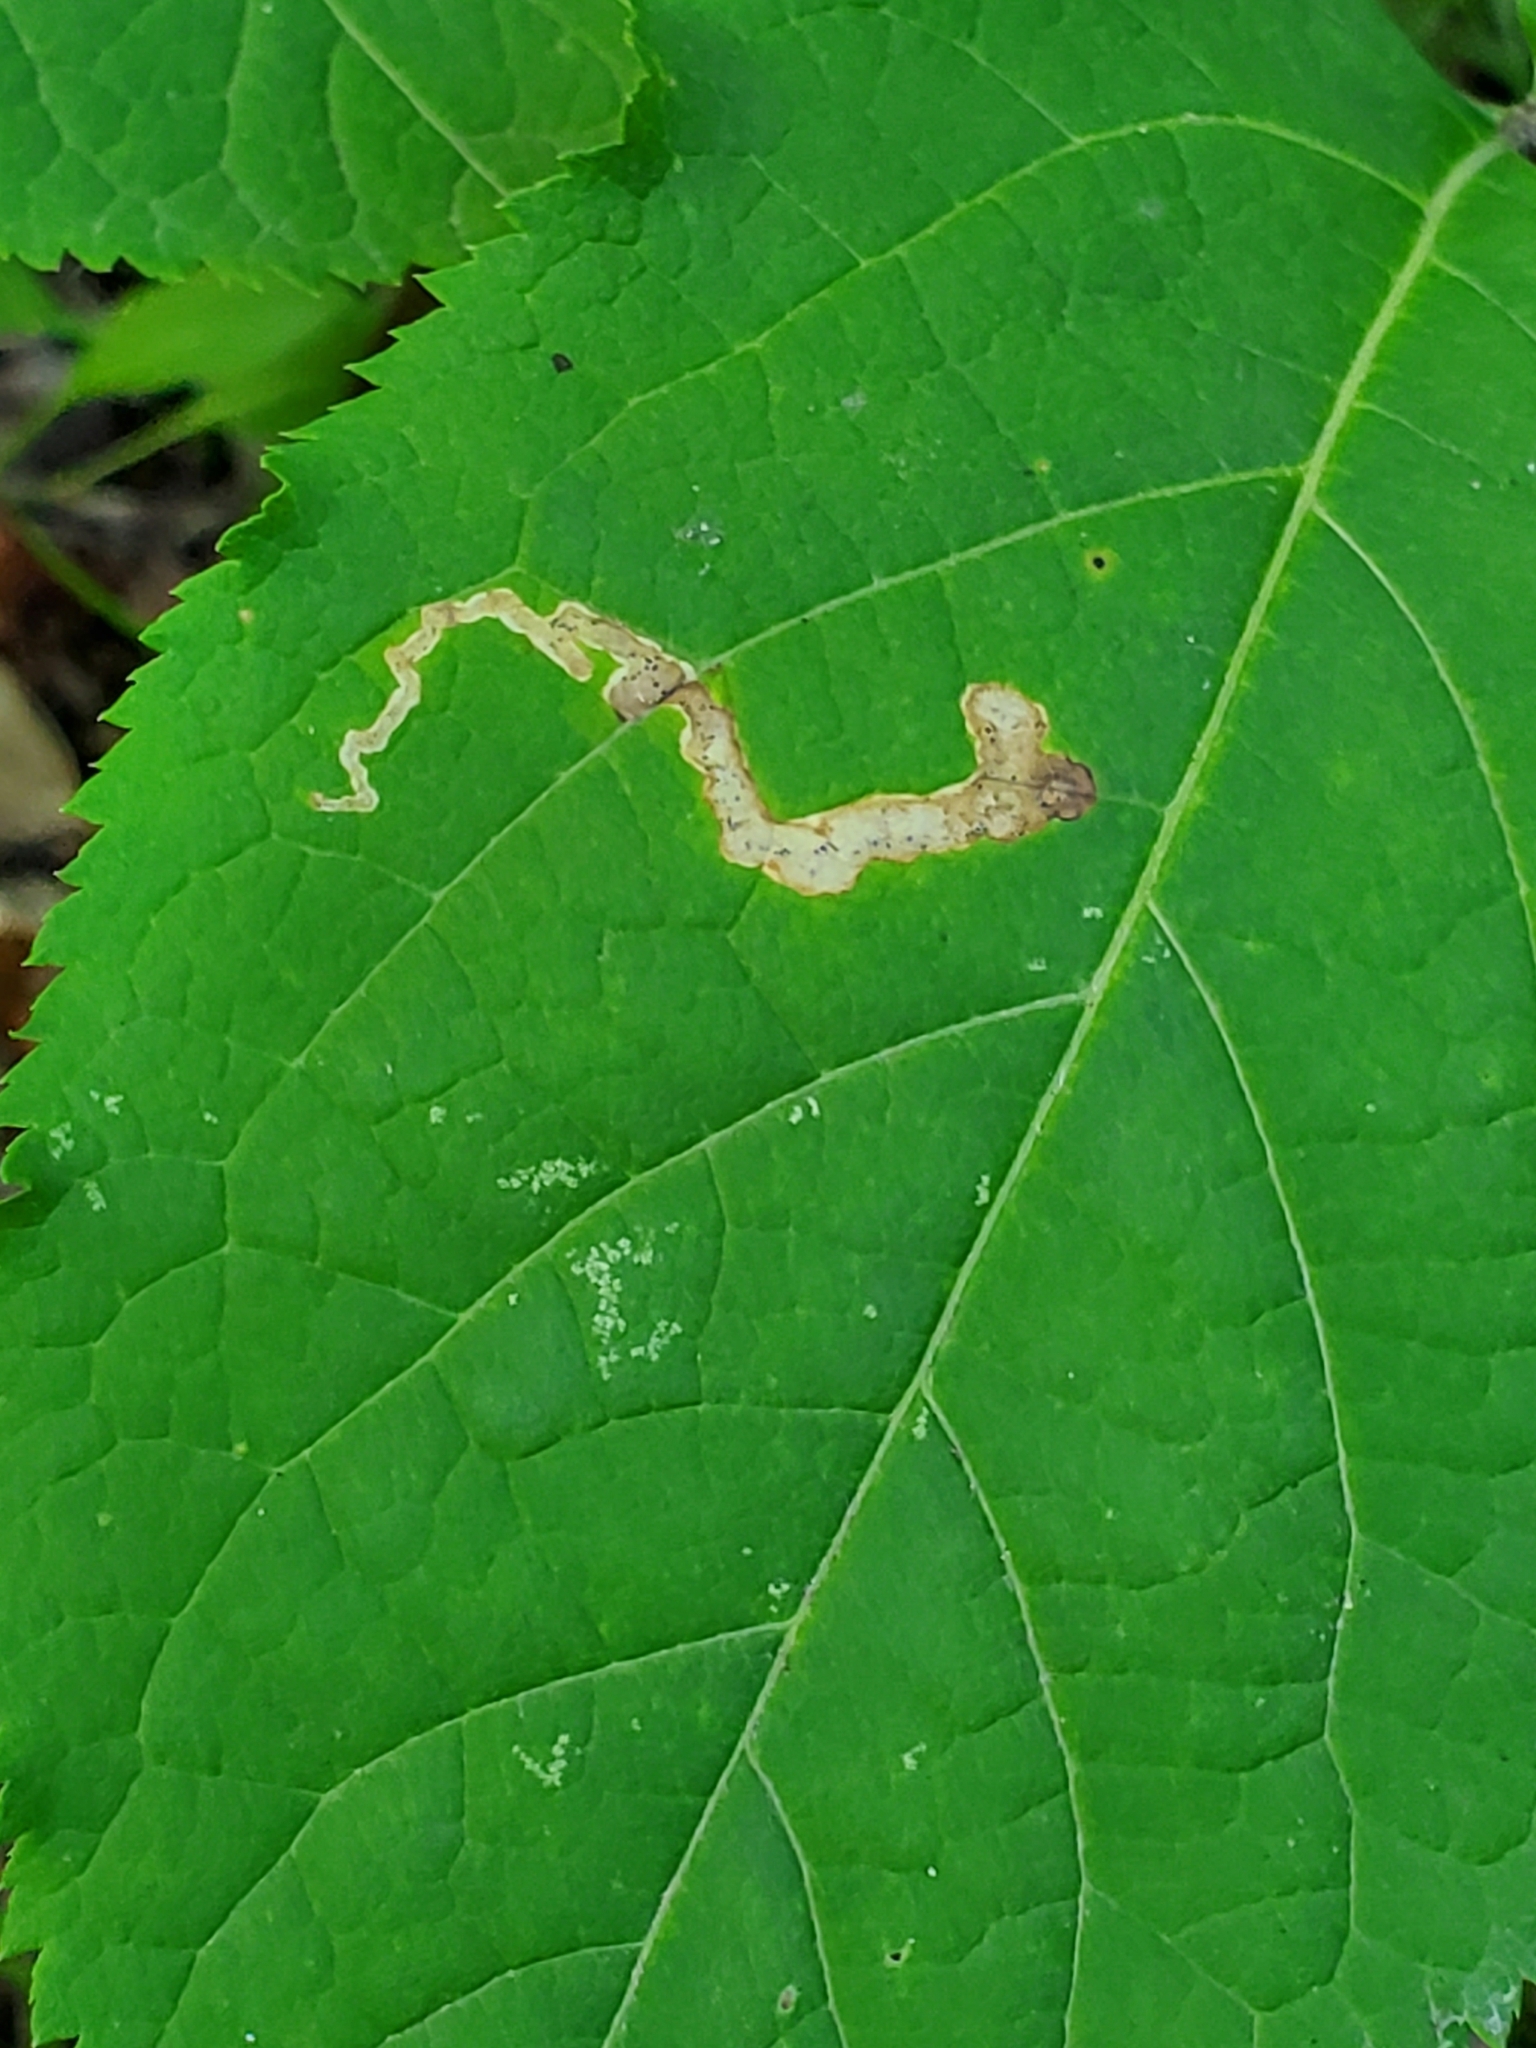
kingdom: Animalia
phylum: Arthropoda
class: Insecta
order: Diptera
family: Agromyzidae
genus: Phytomyza
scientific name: Phytomyza aralivora
